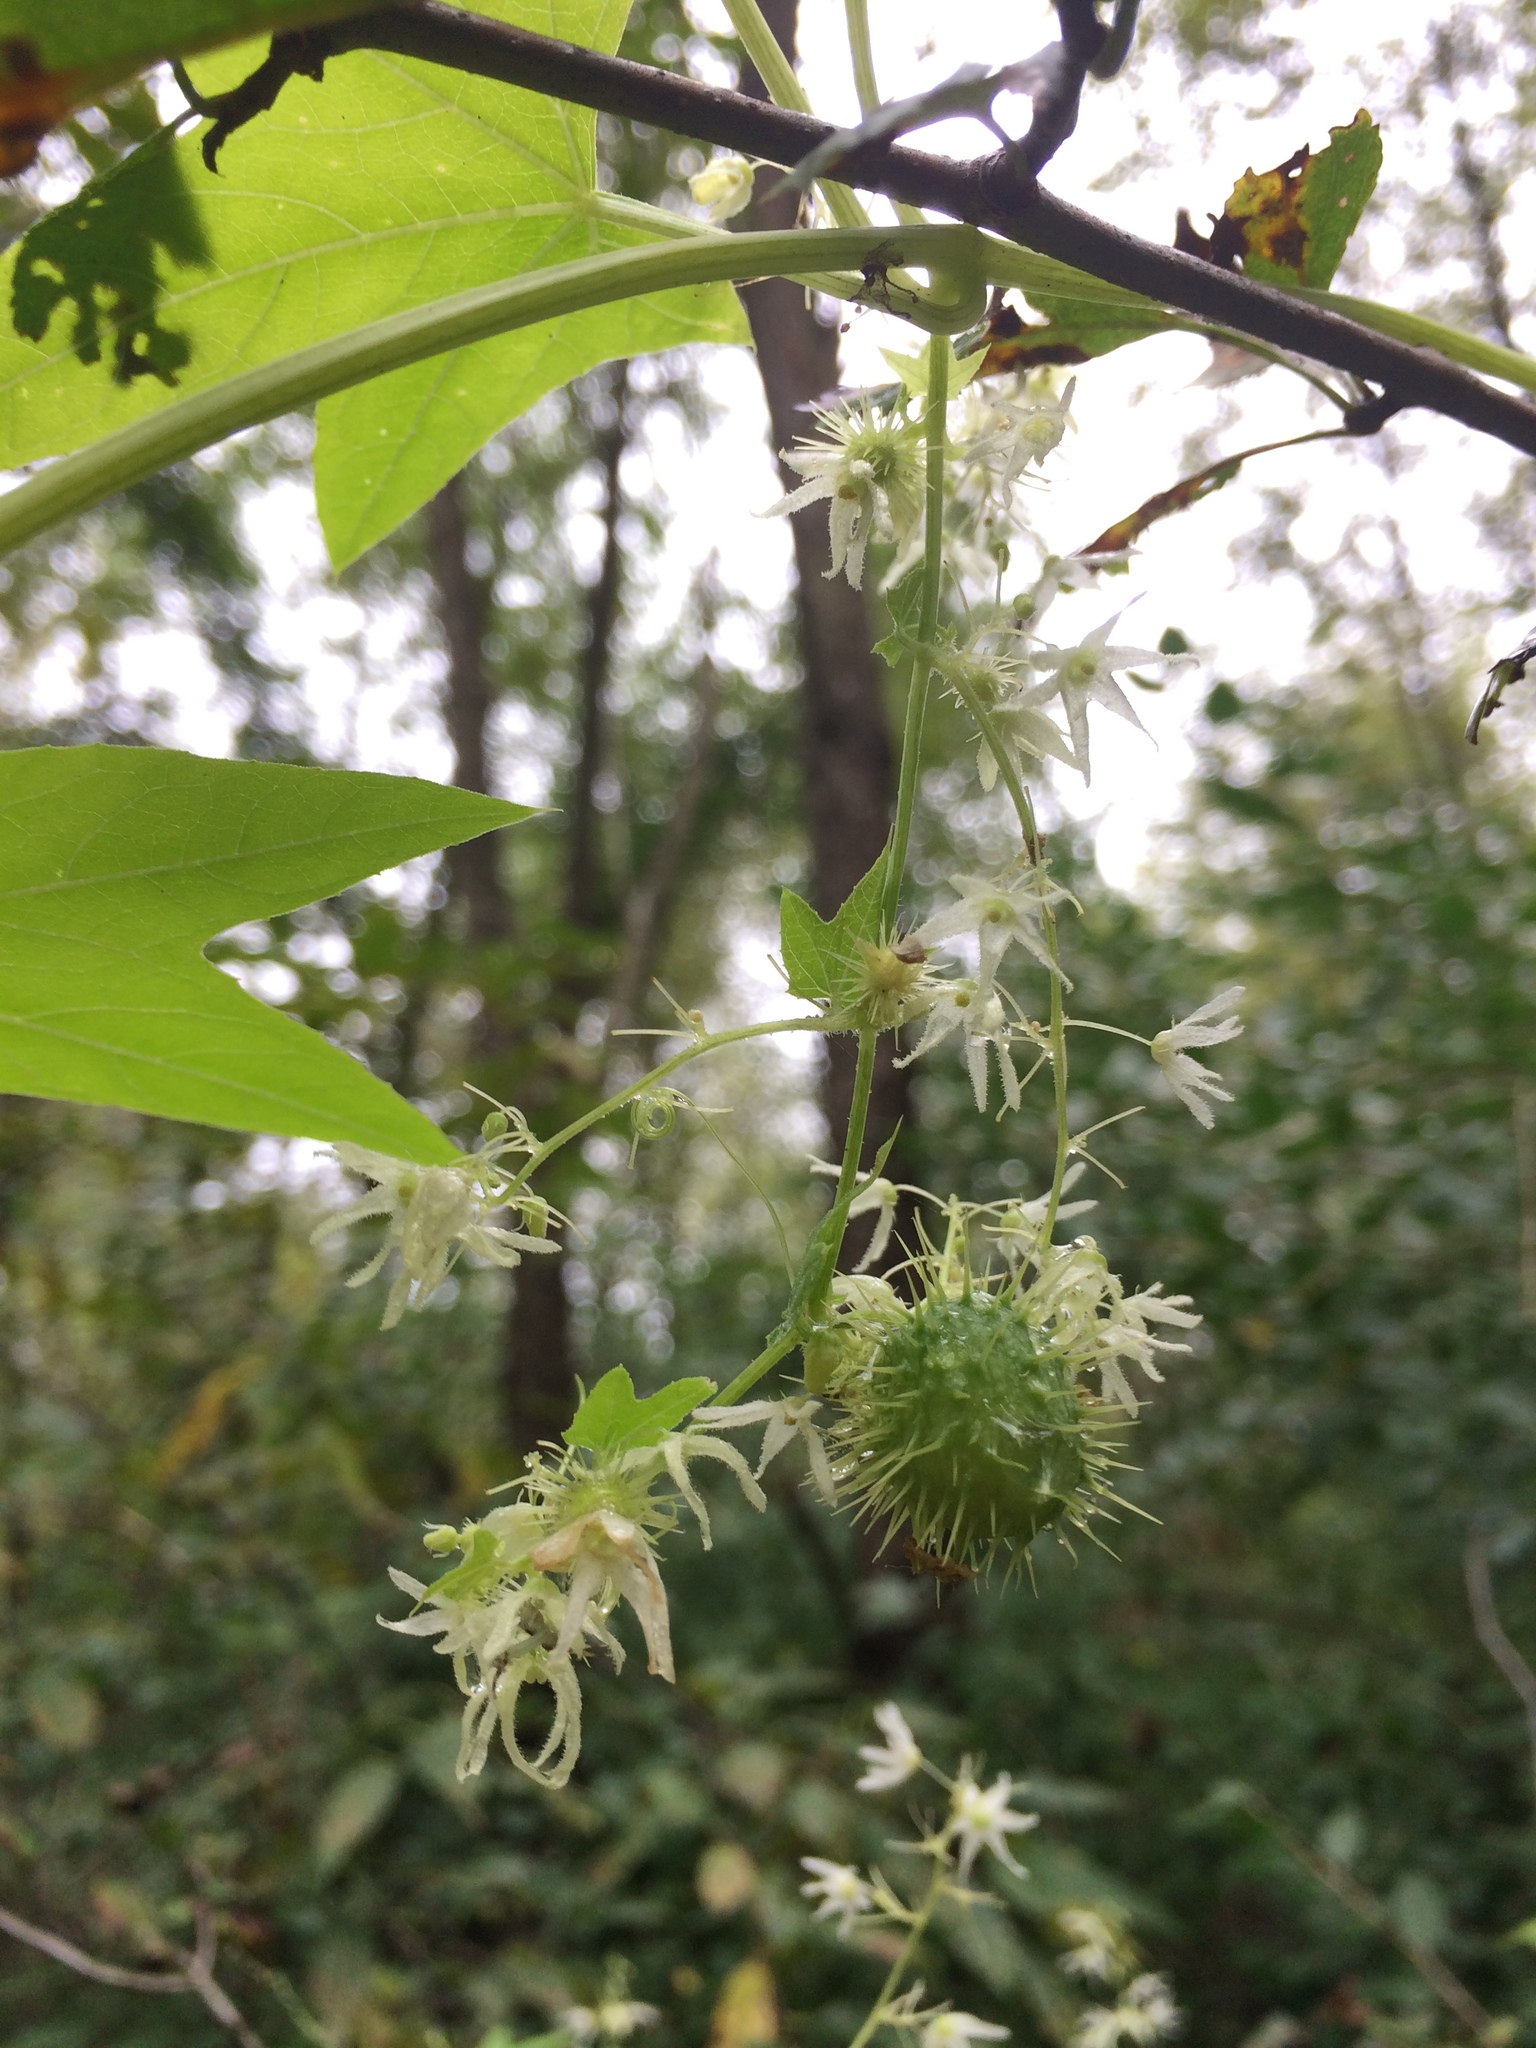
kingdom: Plantae
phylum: Tracheophyta
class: Magnoliopsida
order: Cucurbitales
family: Cucurbitaceae
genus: Echinocystis
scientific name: Echinocystis lobata
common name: Wild cucumber
